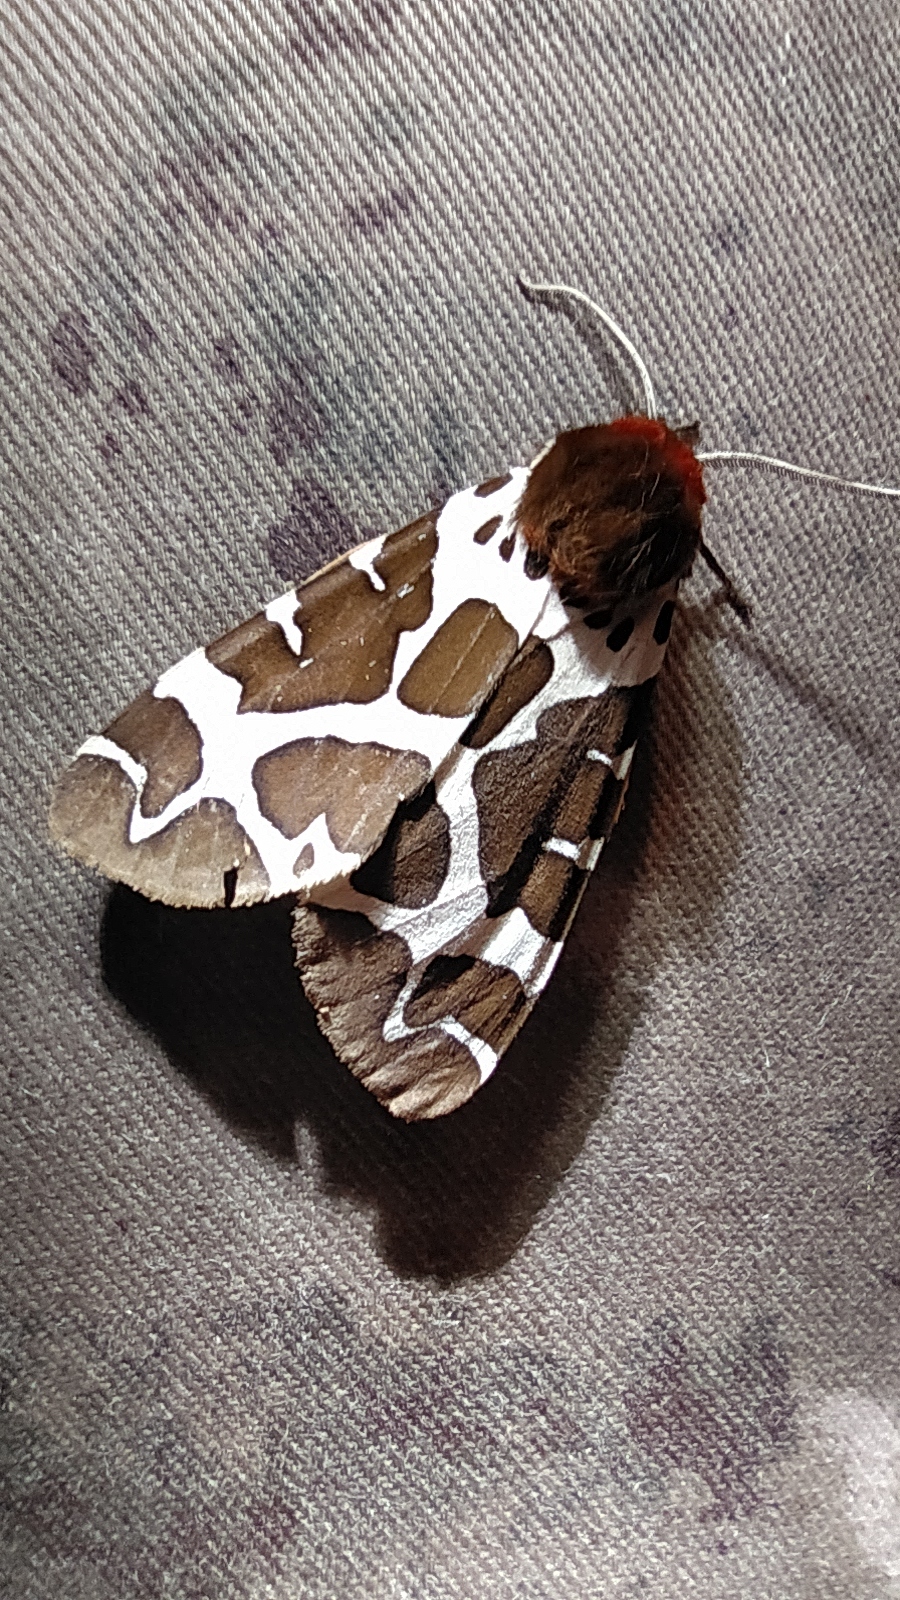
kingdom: Animalia
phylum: Arthropoda
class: Insecta
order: Lepidoptera
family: Erebidae
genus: Arctia
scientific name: Arctia caja
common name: Garden tiger
